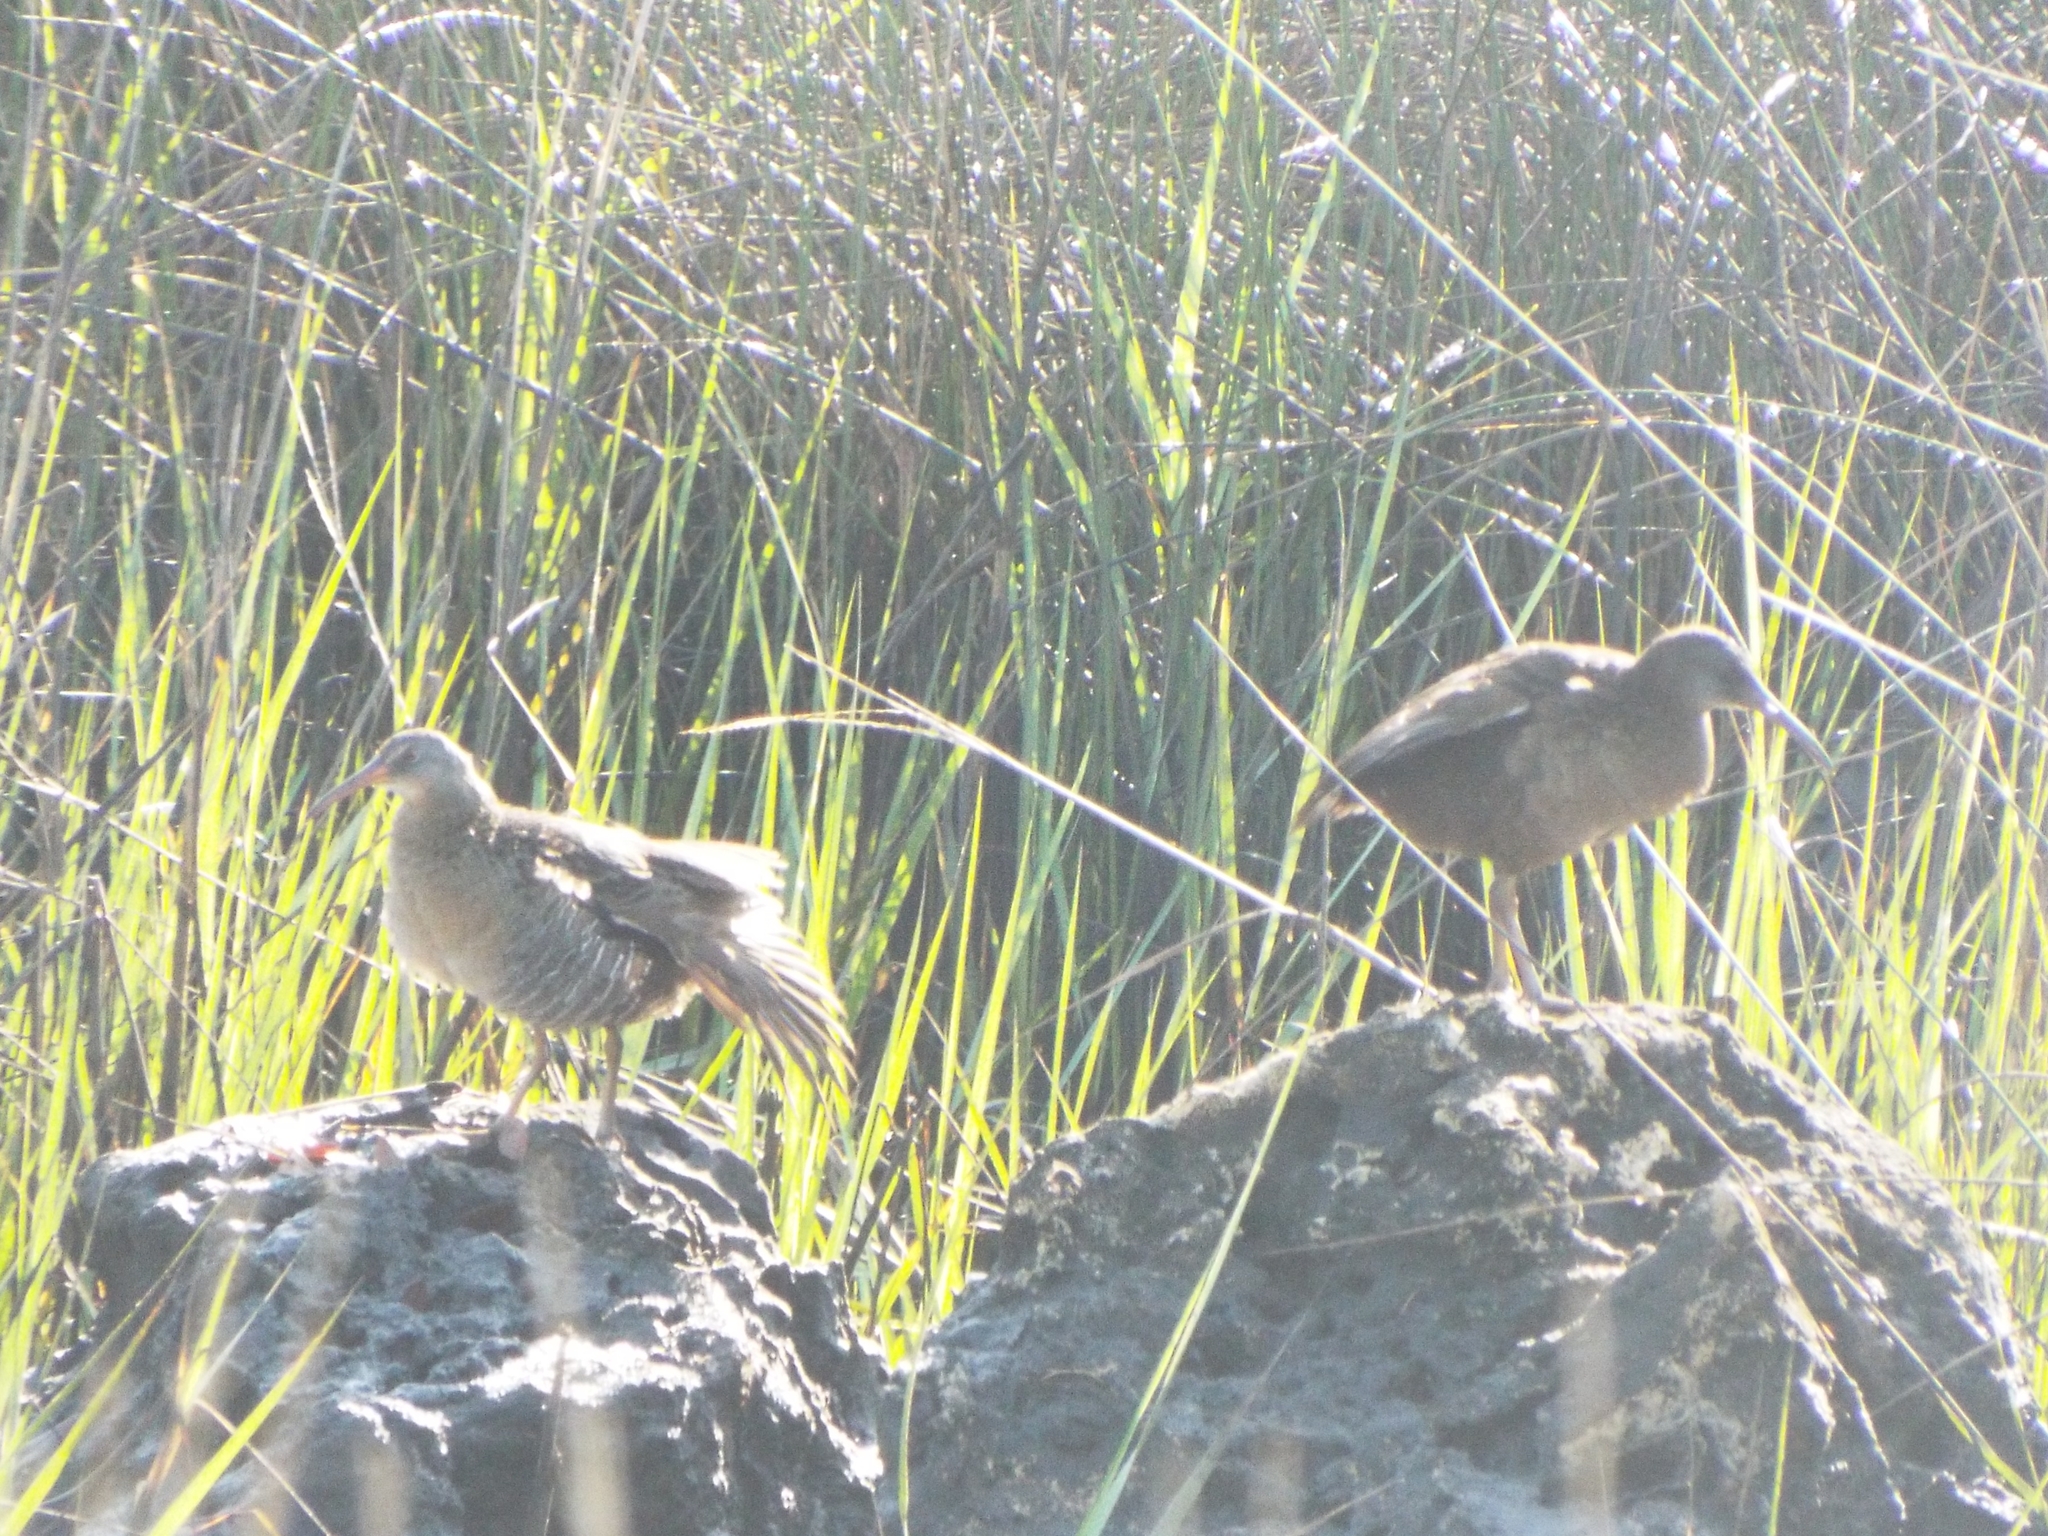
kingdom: Animalia
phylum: Chordata
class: Aves
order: Gruiformes
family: Rallidae
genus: Rallus
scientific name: Rallus crepitans
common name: Clapper rail
